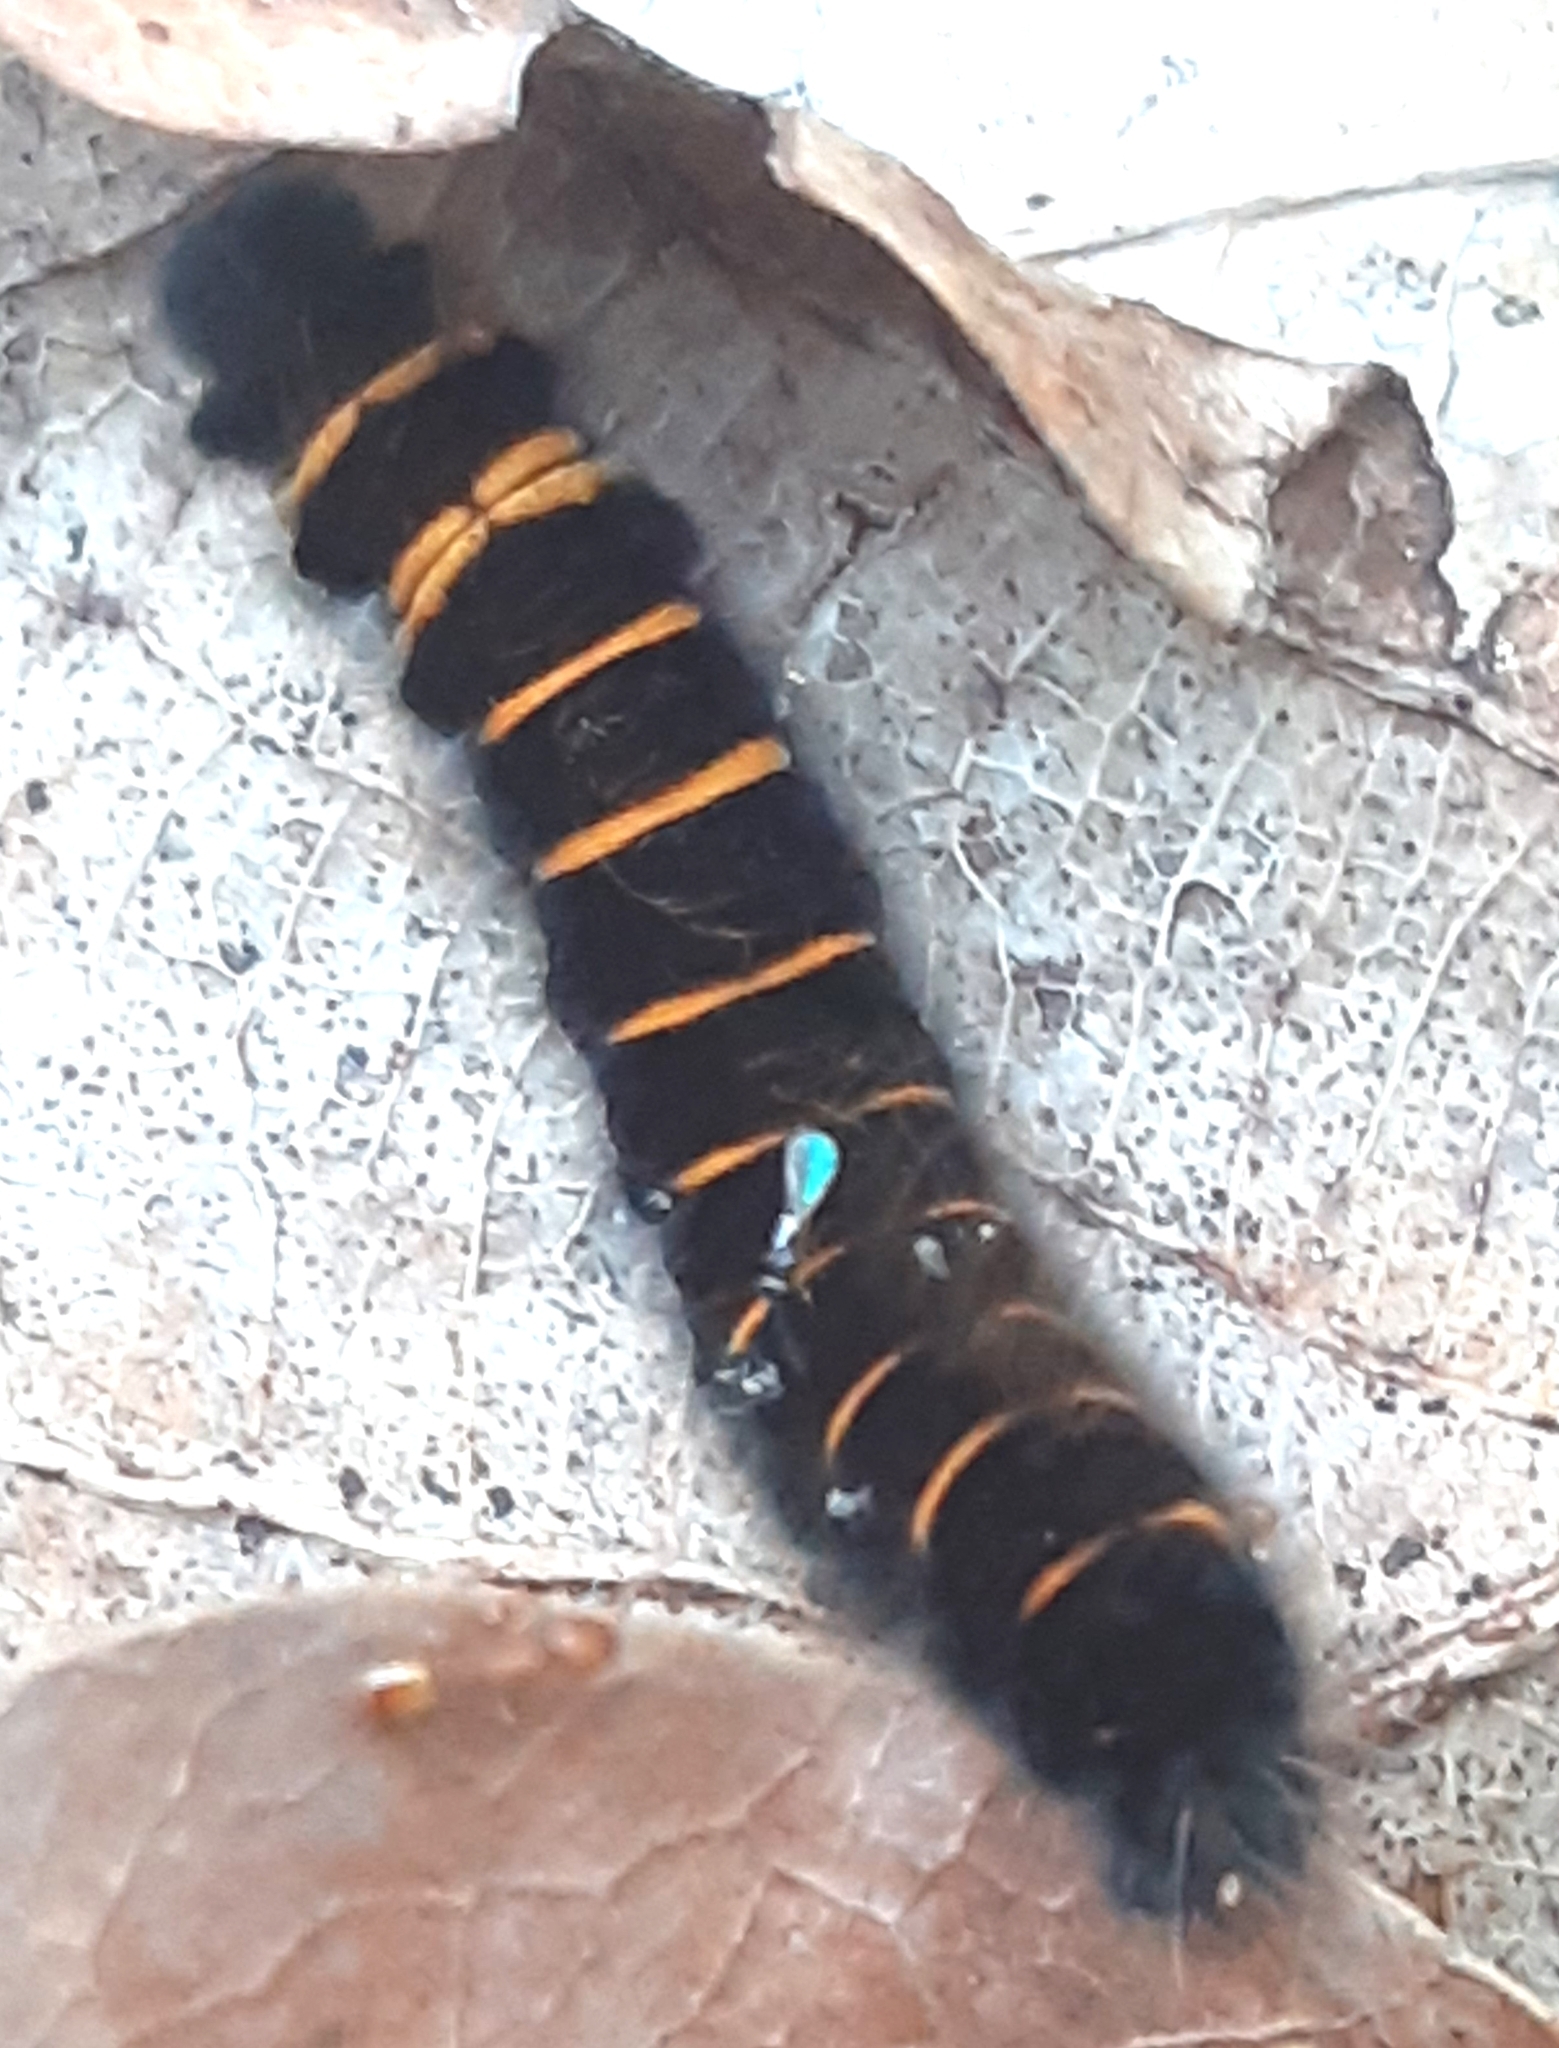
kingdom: Animalia
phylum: Arthropoda
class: Insecta
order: Lepidoptera
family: Lasiocampidae
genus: Macrothylacia
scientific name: Macrothylacia rubi
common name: Fox moth
